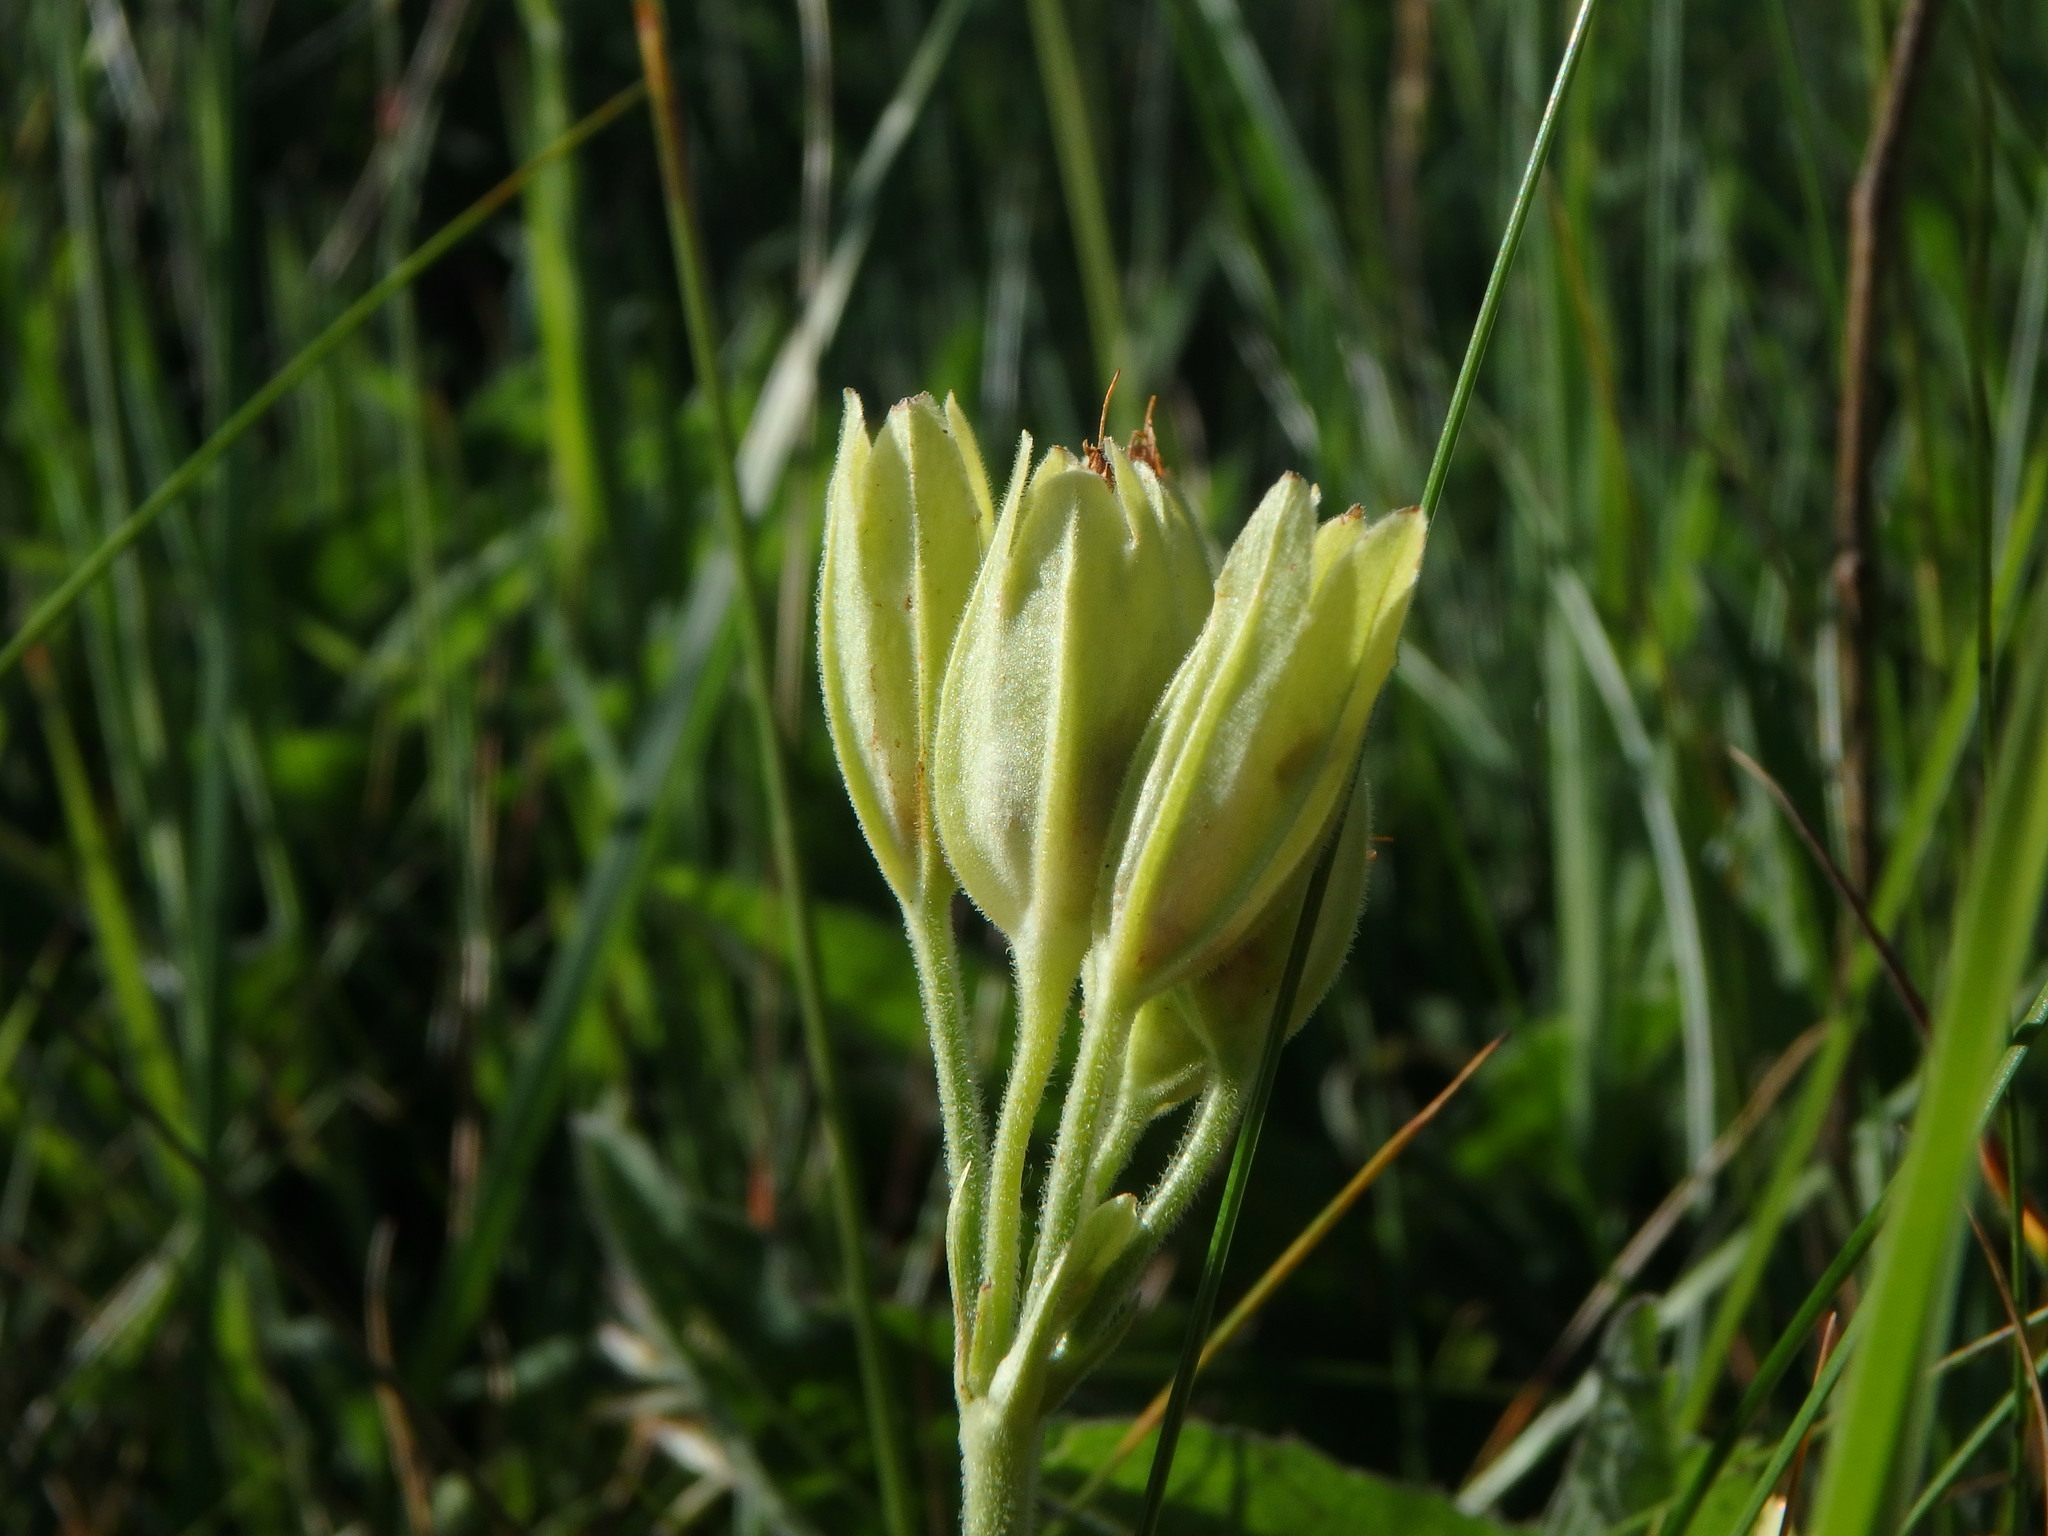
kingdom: Plantae
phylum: Tracheophyta
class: Magnoliopsida
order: Ericales
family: Primulaceae
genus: Primula
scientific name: Primula veris
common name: Cowslip
